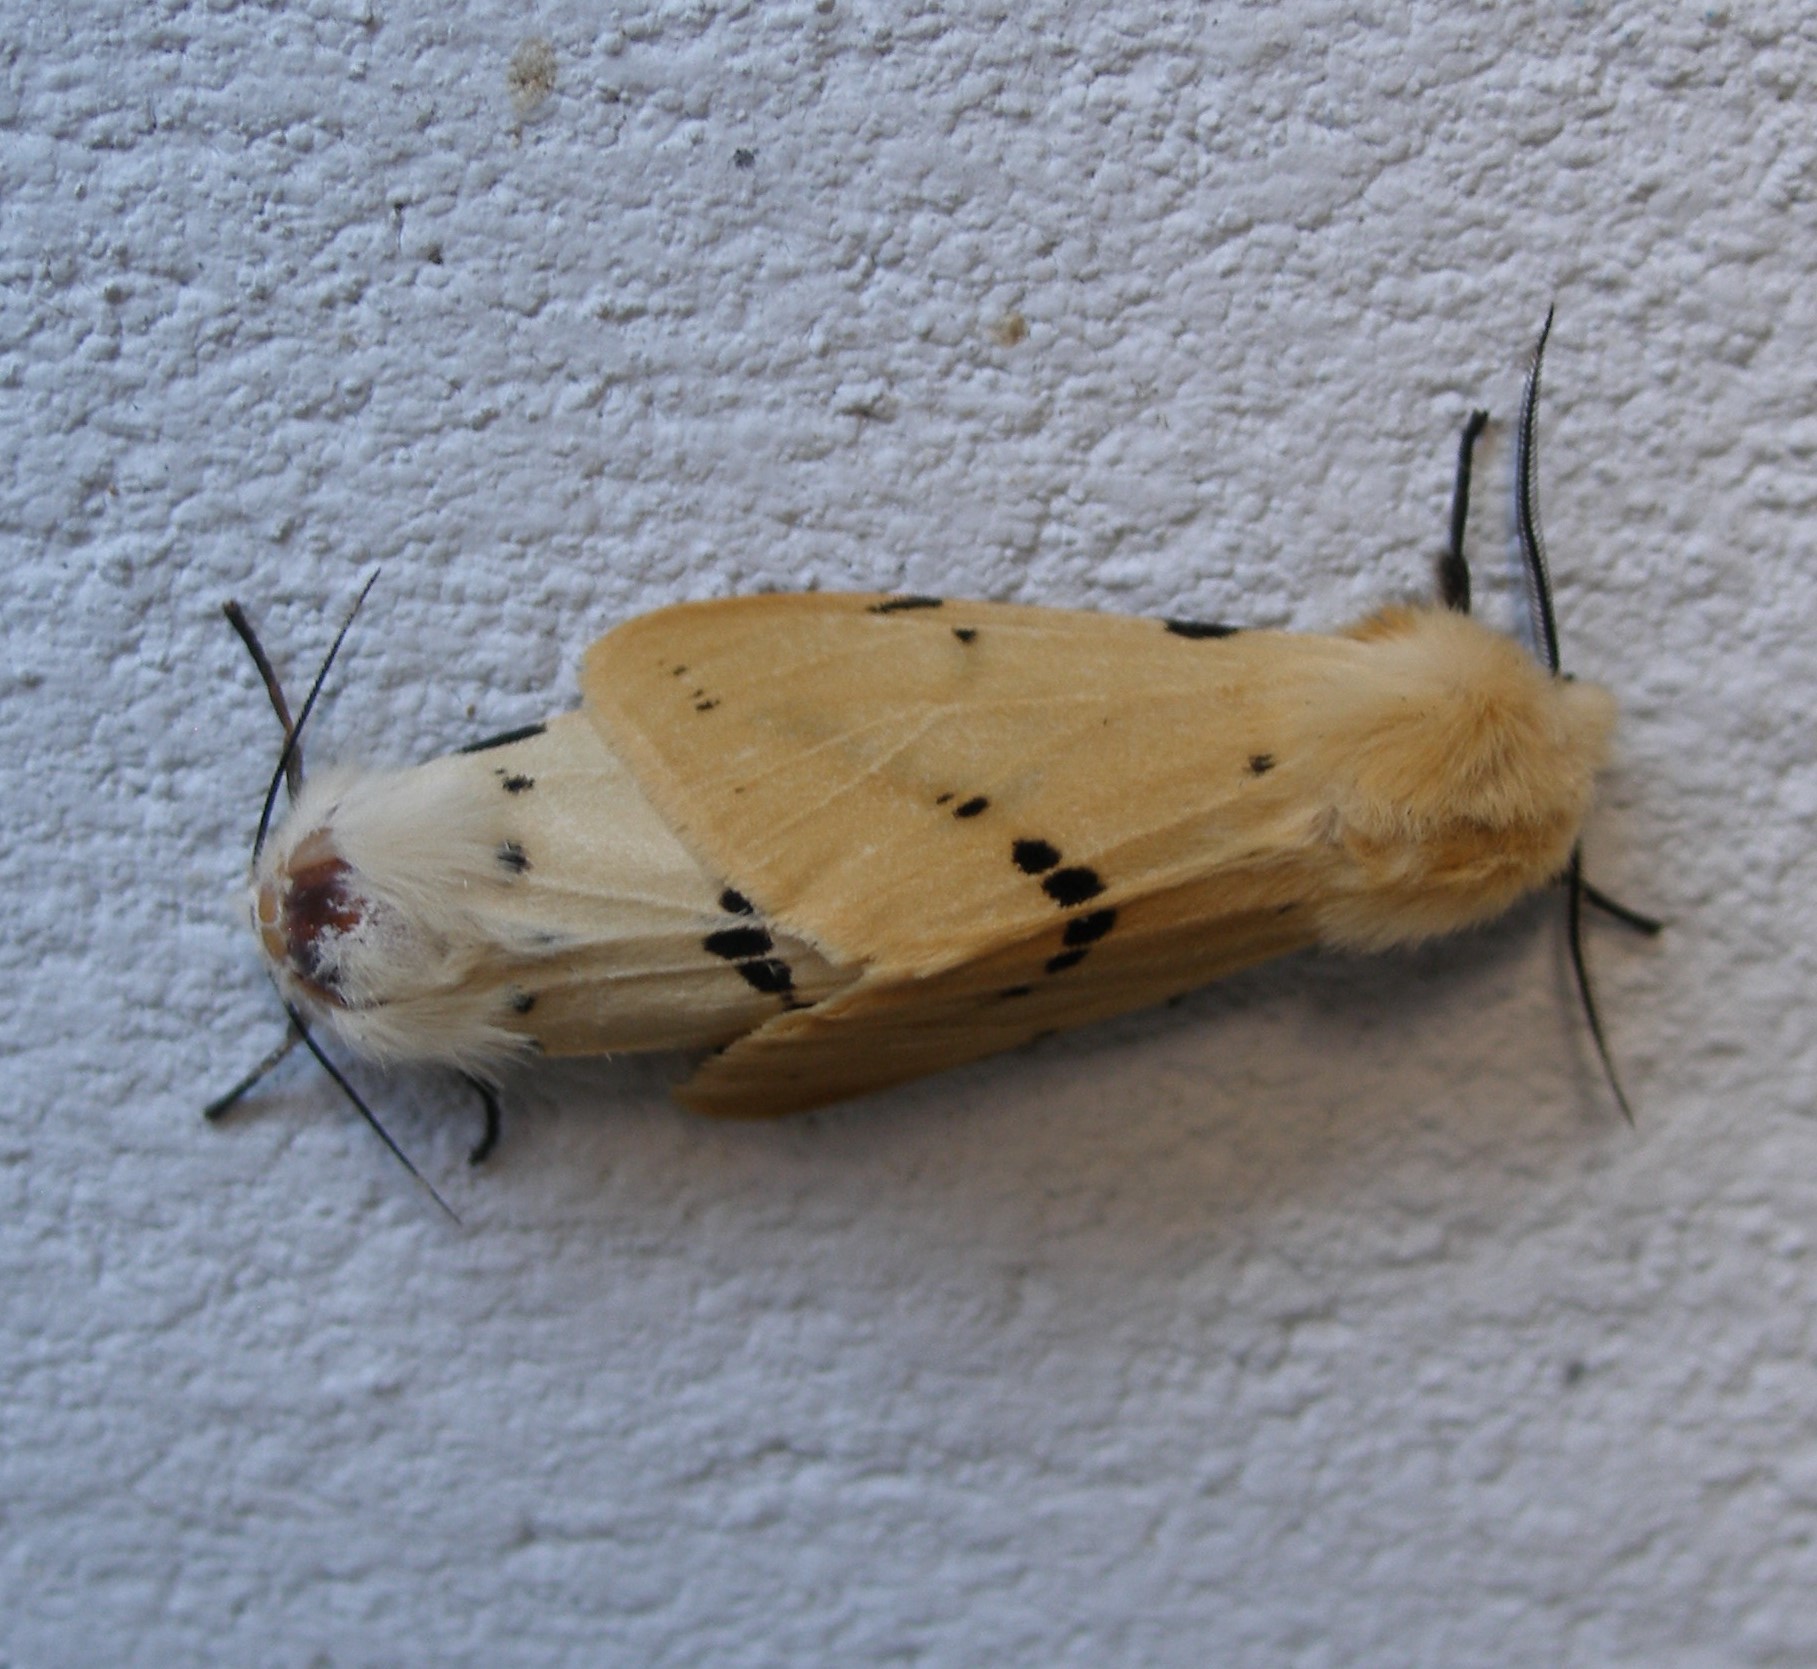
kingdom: Animalia
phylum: Arthropoda
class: Insecta
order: Lepidoptera
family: Erebidae
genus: Spilarctia
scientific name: Spilarctia lutea
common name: Buff ermine
